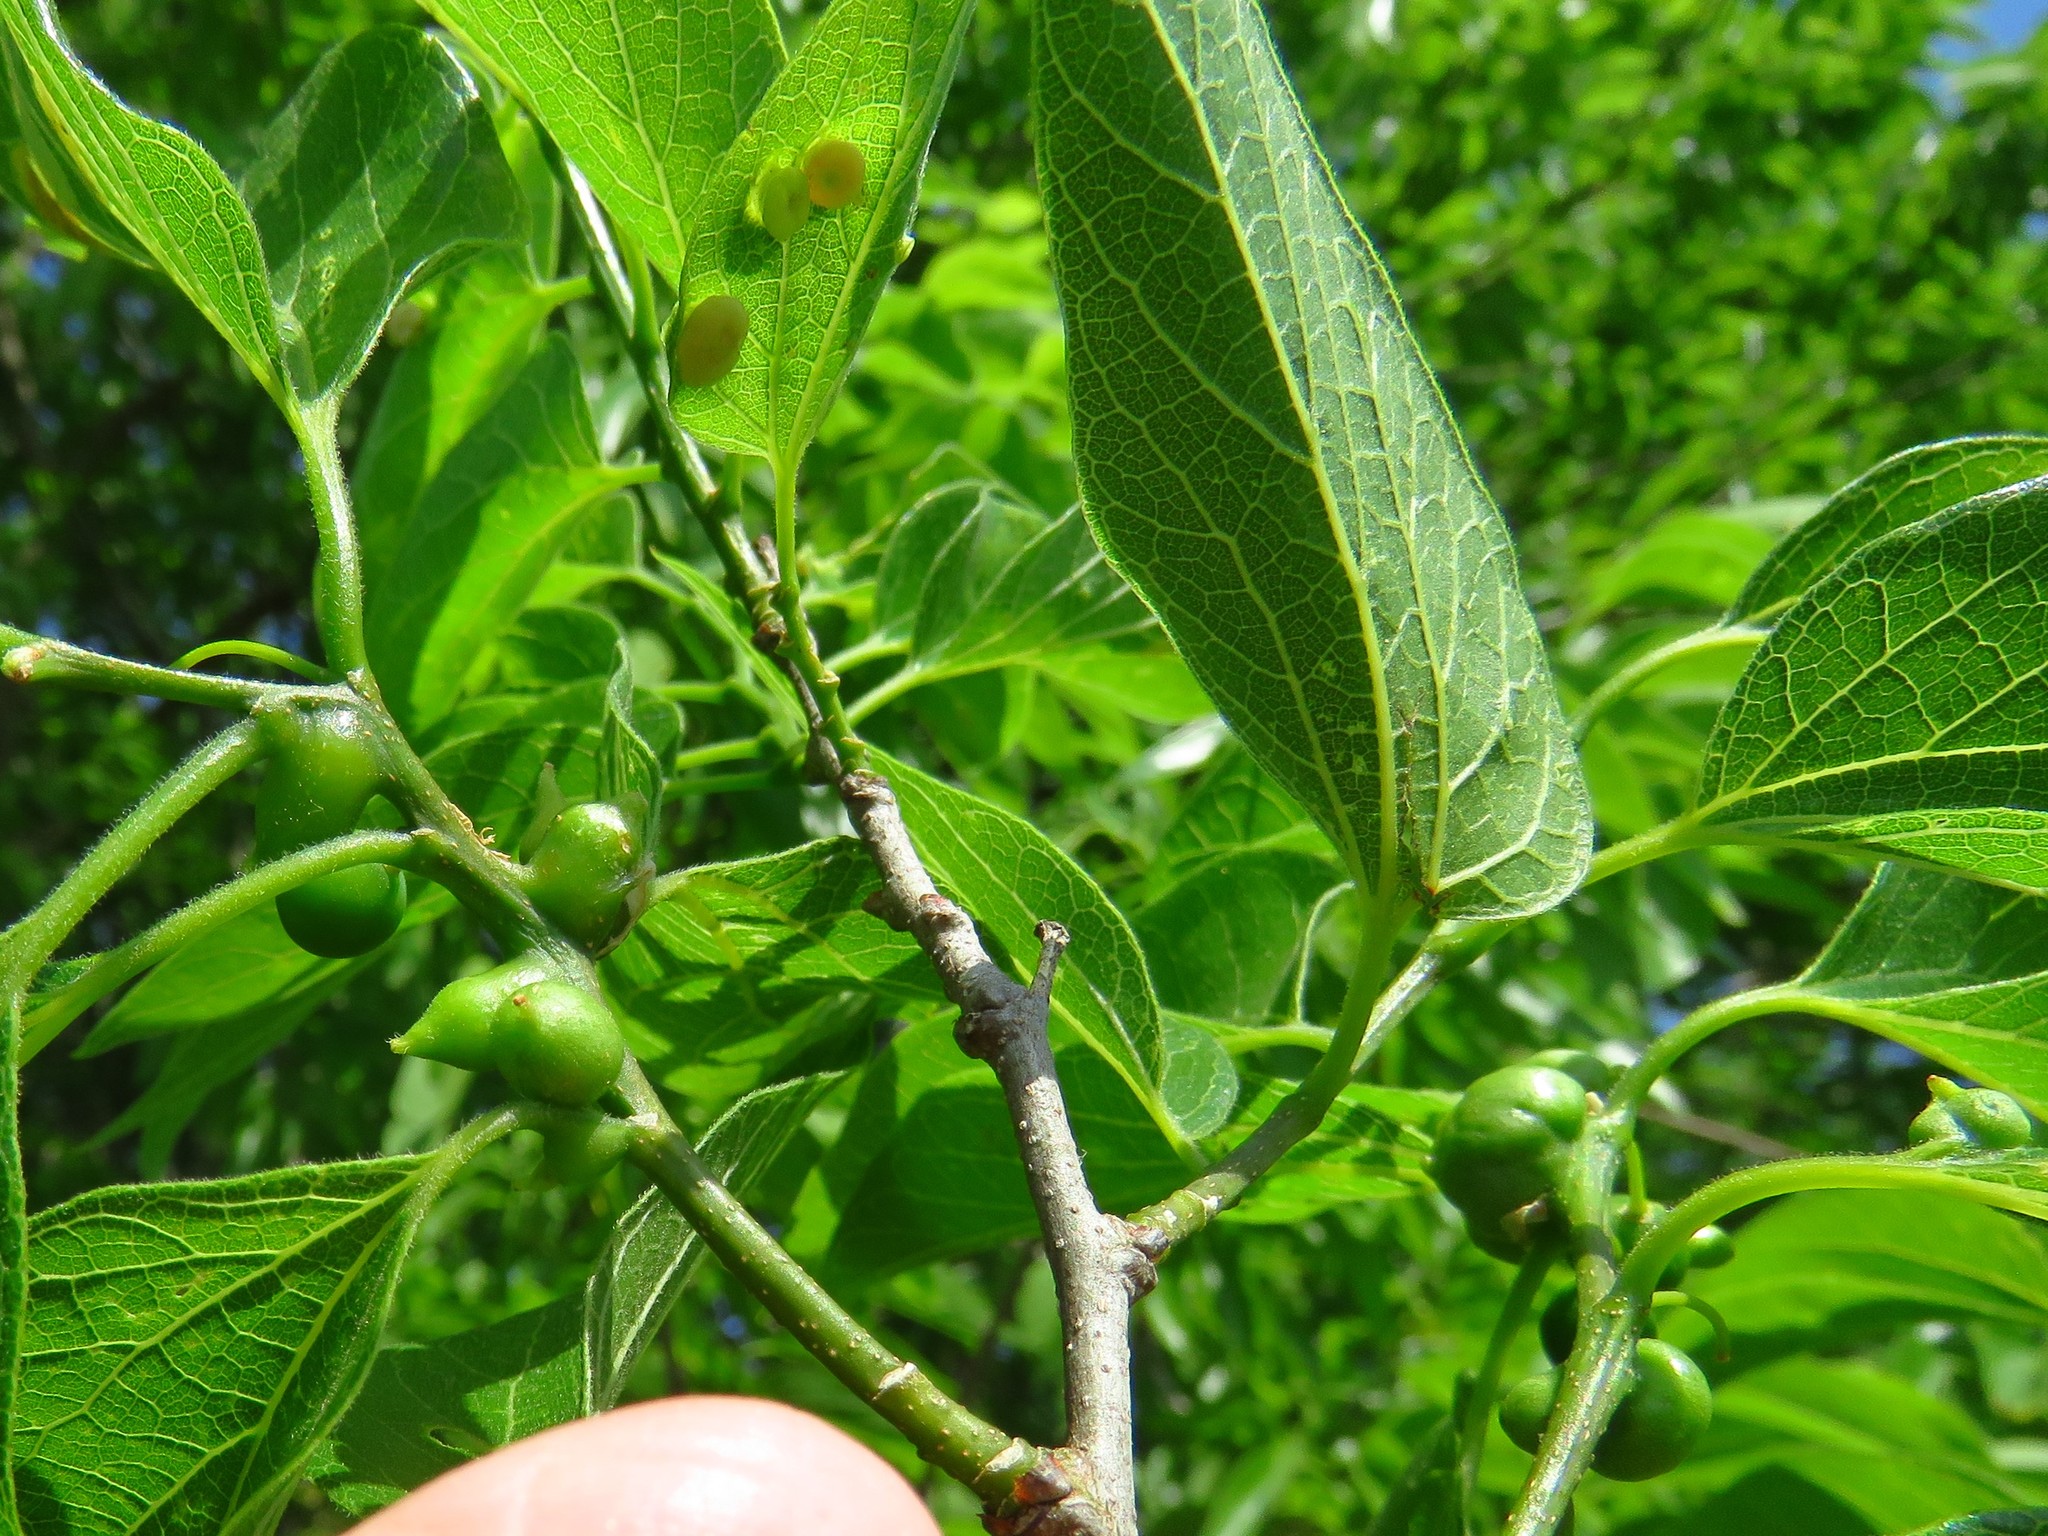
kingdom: Animalia
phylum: Arthropoda
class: Insecta
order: Diptera
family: Cecidomyiidae
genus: Celticecis
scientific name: Celticecis connata
